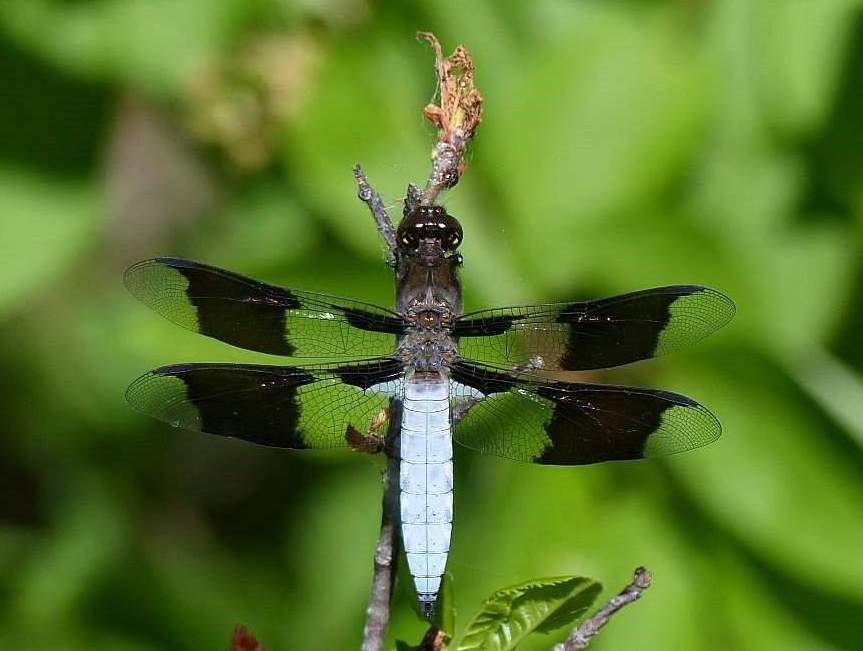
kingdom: Animalia
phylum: Arthropoda
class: Insecta
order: Odonata
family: Libellulidae
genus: Plathemis
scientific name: Plathemis lydia
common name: Common whitetail
